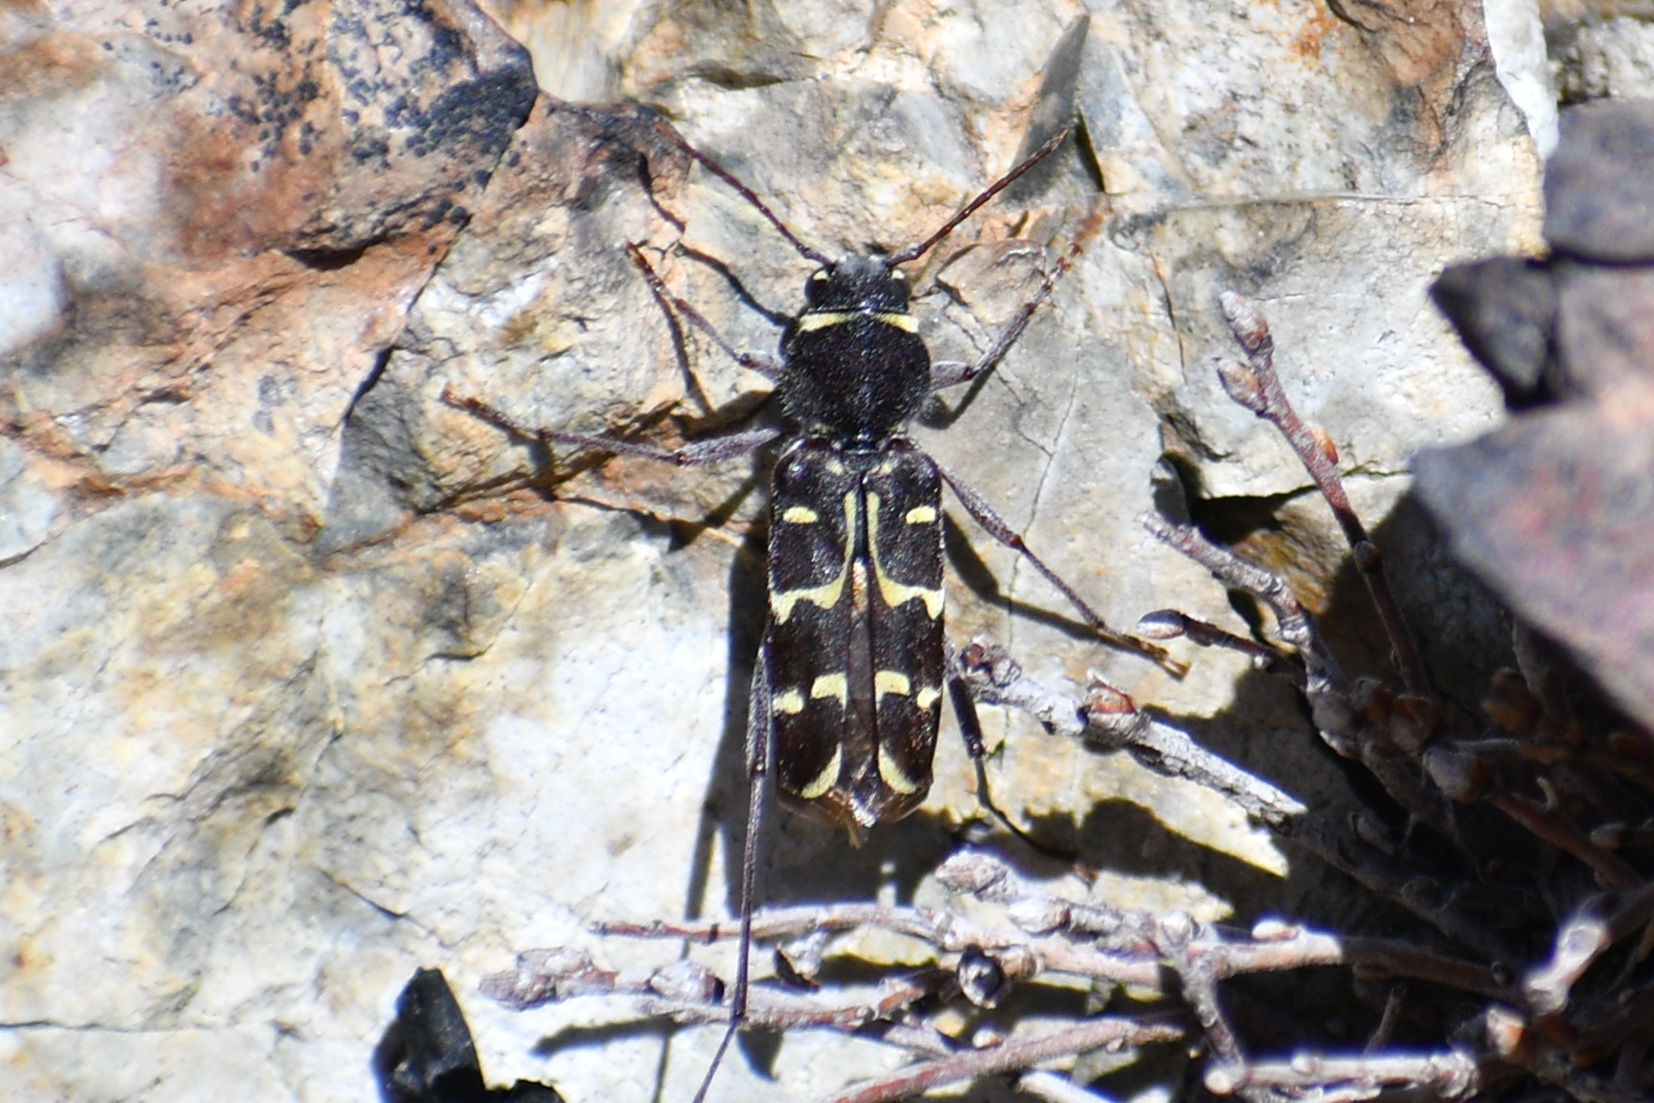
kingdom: Animalia
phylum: Arthropoda
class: Insecta
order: Coleoptera
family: Cerambycidae
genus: Xylotrechus
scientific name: Xylotrechus undulatus
